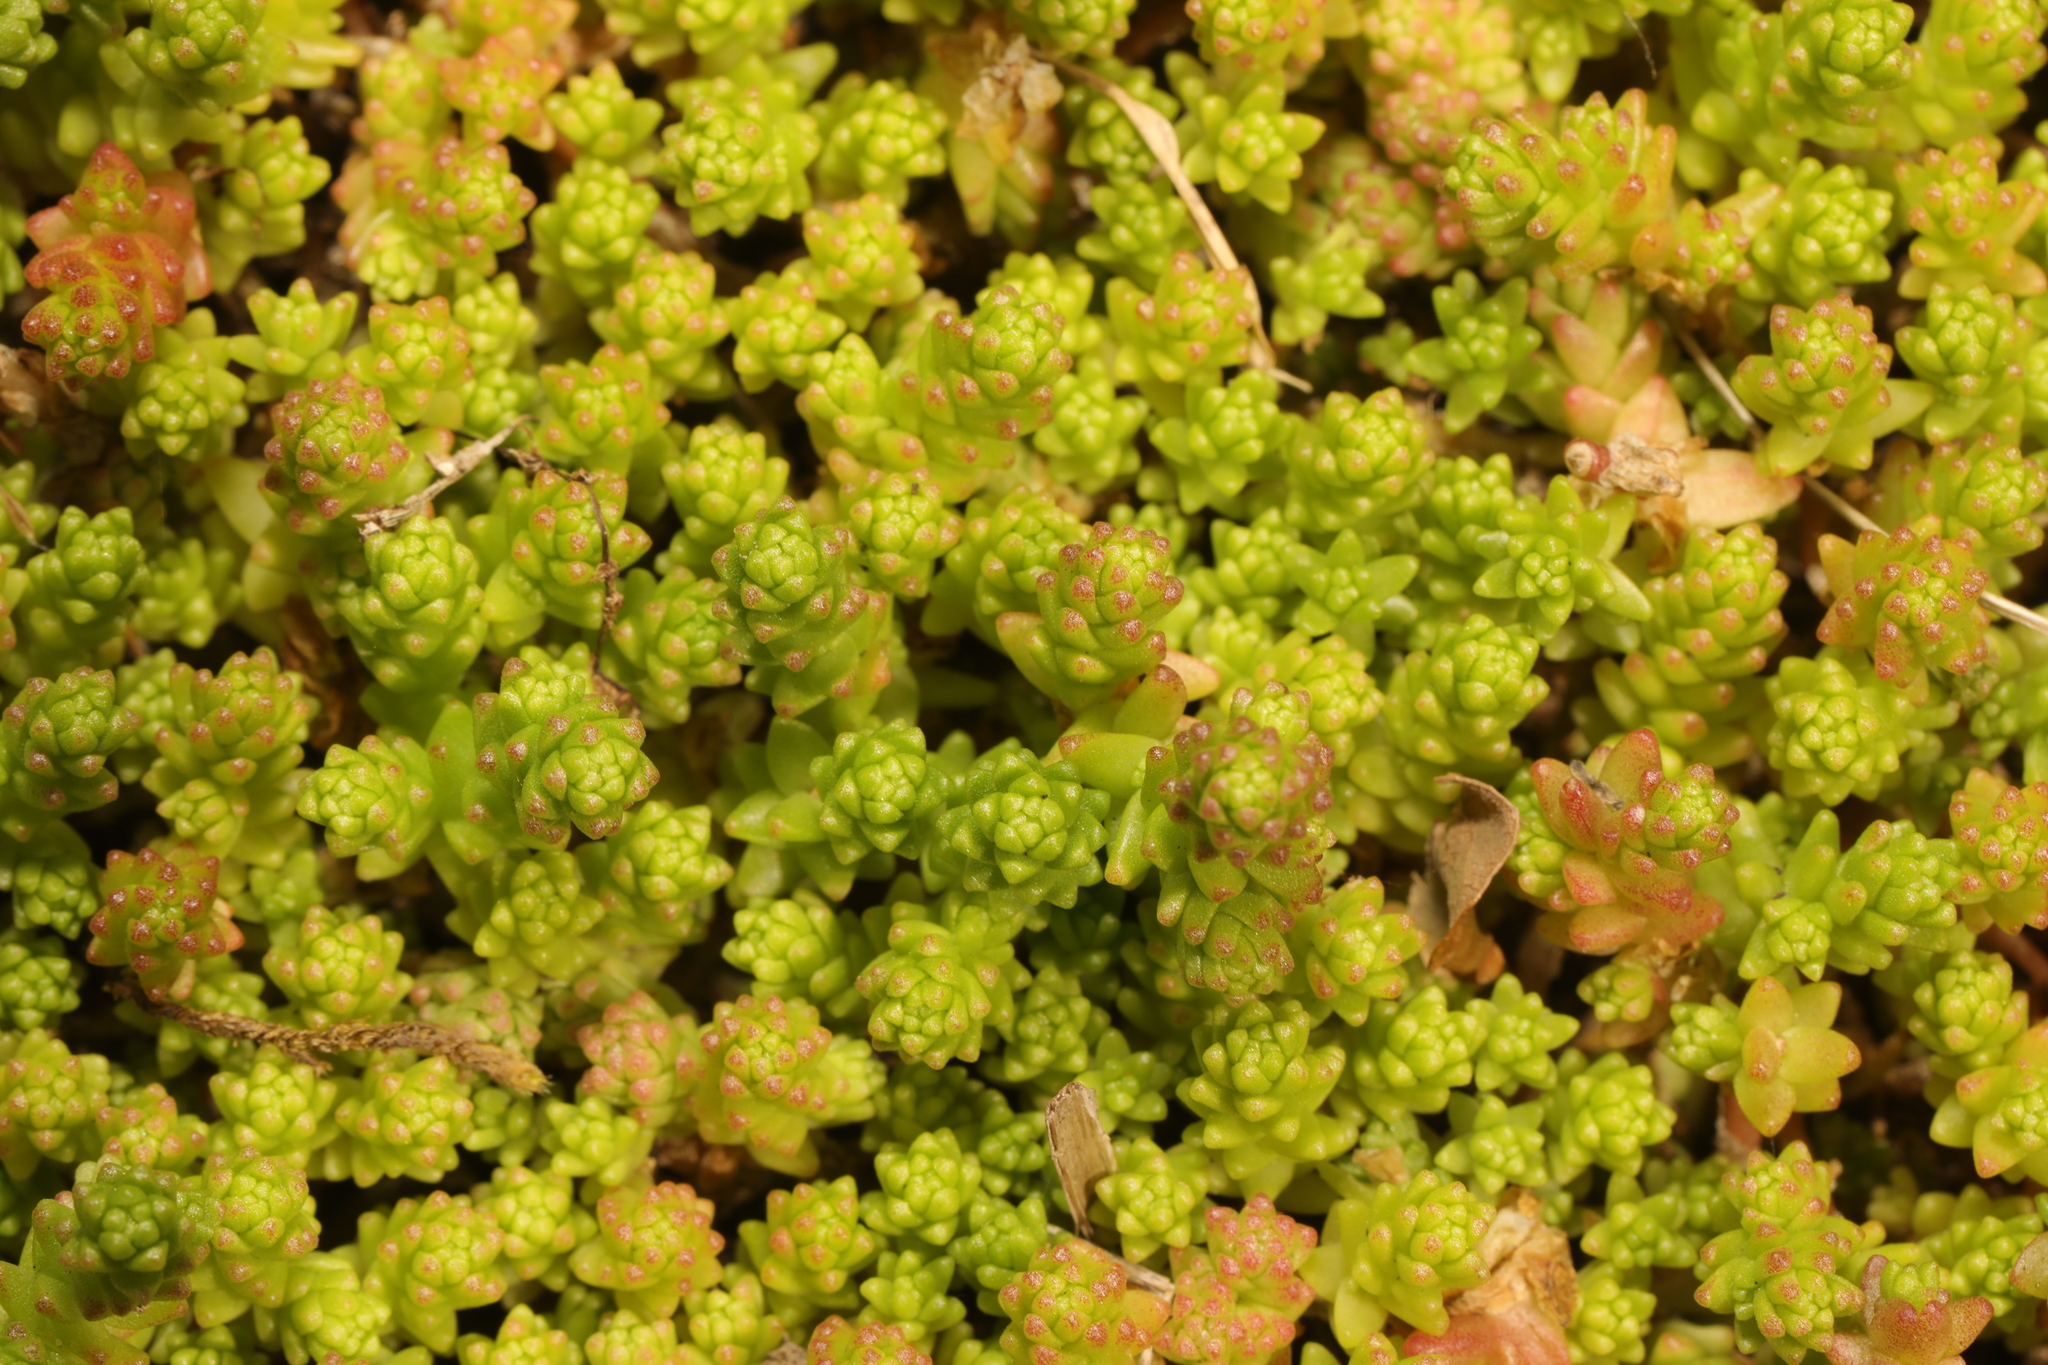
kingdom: Plantae
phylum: Tracheophyta
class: Magnoliopsida
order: Saxifragales
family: Crassulaceae
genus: Sedum
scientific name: Sedum acre
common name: Biting stonecrop
